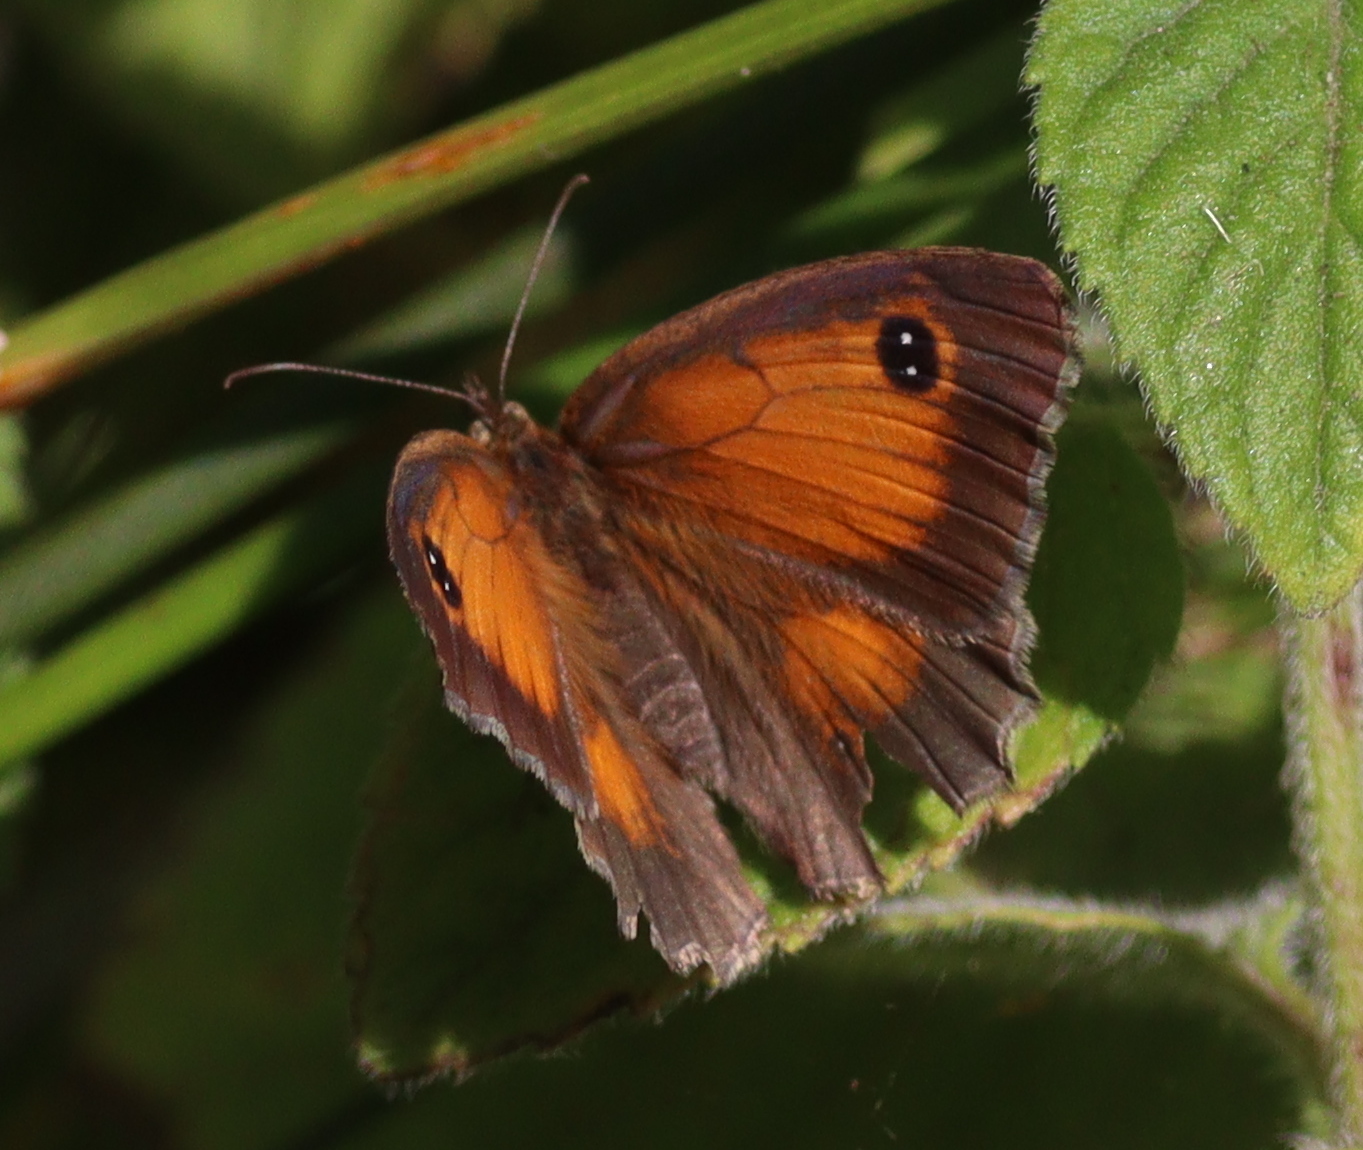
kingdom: Animalia
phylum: Arthropoda
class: Insecta
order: Lepidoptera
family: Nymphalidae
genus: Pyronia
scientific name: Pyronia tithonus
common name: Gatekeeper
